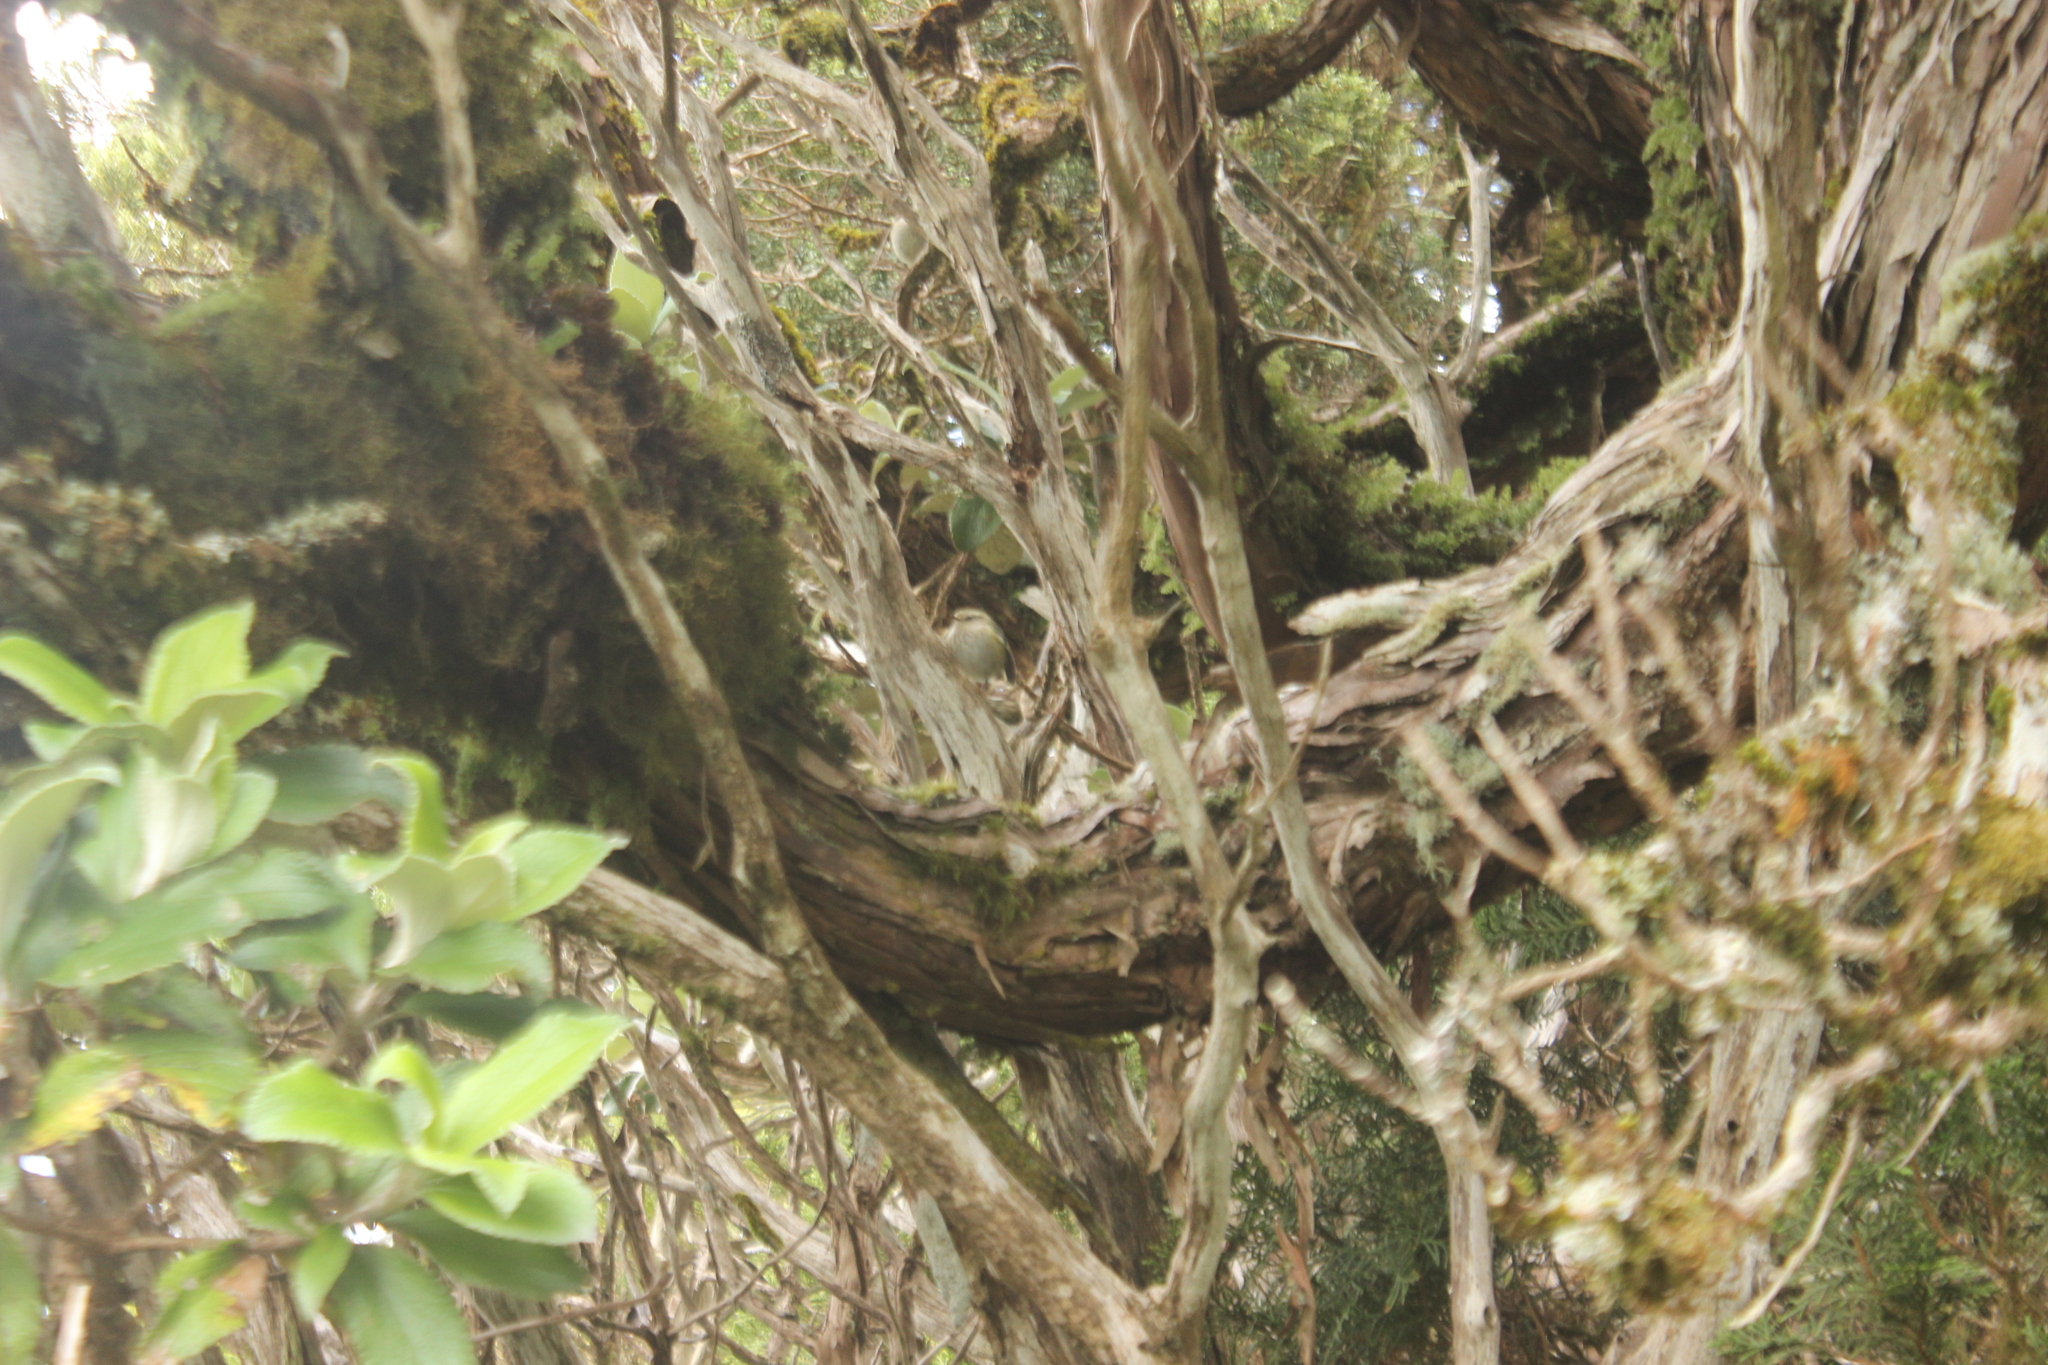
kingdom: Animalia
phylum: Chordata
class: Aves
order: Passeriformes
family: Acanthisittidae
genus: Acanthisitta
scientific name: Acanthisitta chloris
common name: Rifleman
